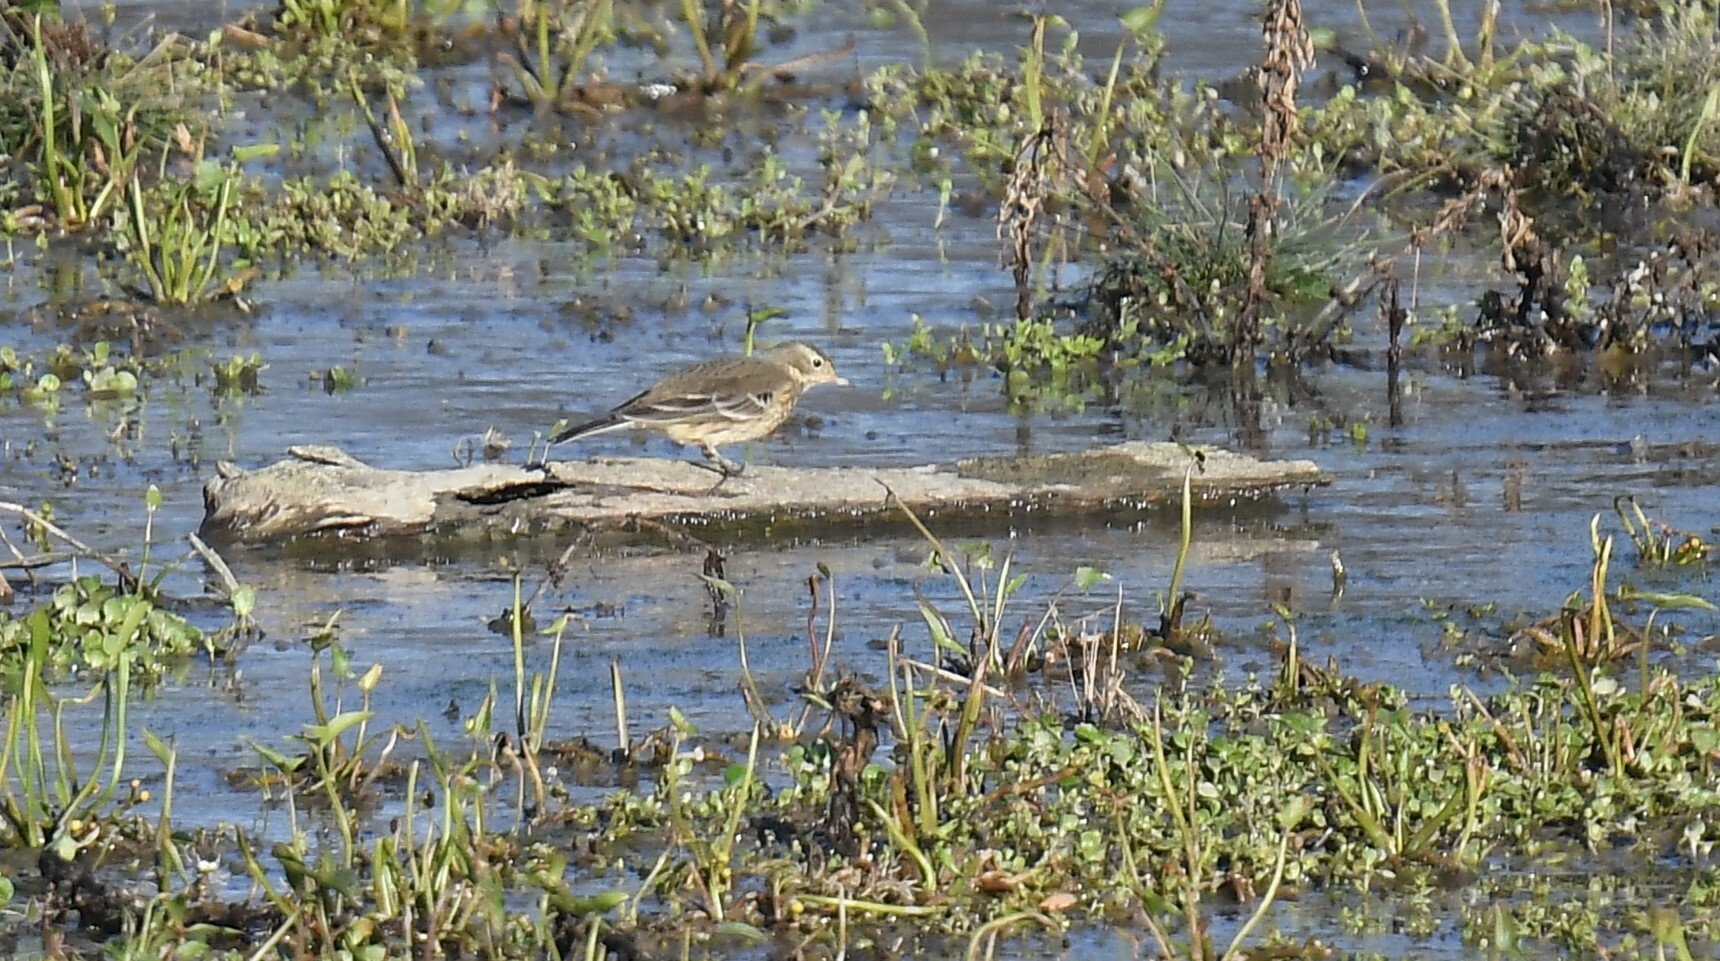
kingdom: Animalia
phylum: Chordata
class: Aves
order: Passeriformes
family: Motacillidae
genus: Anthus
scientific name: Anthus rubescens
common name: Buff-bellied pipit
